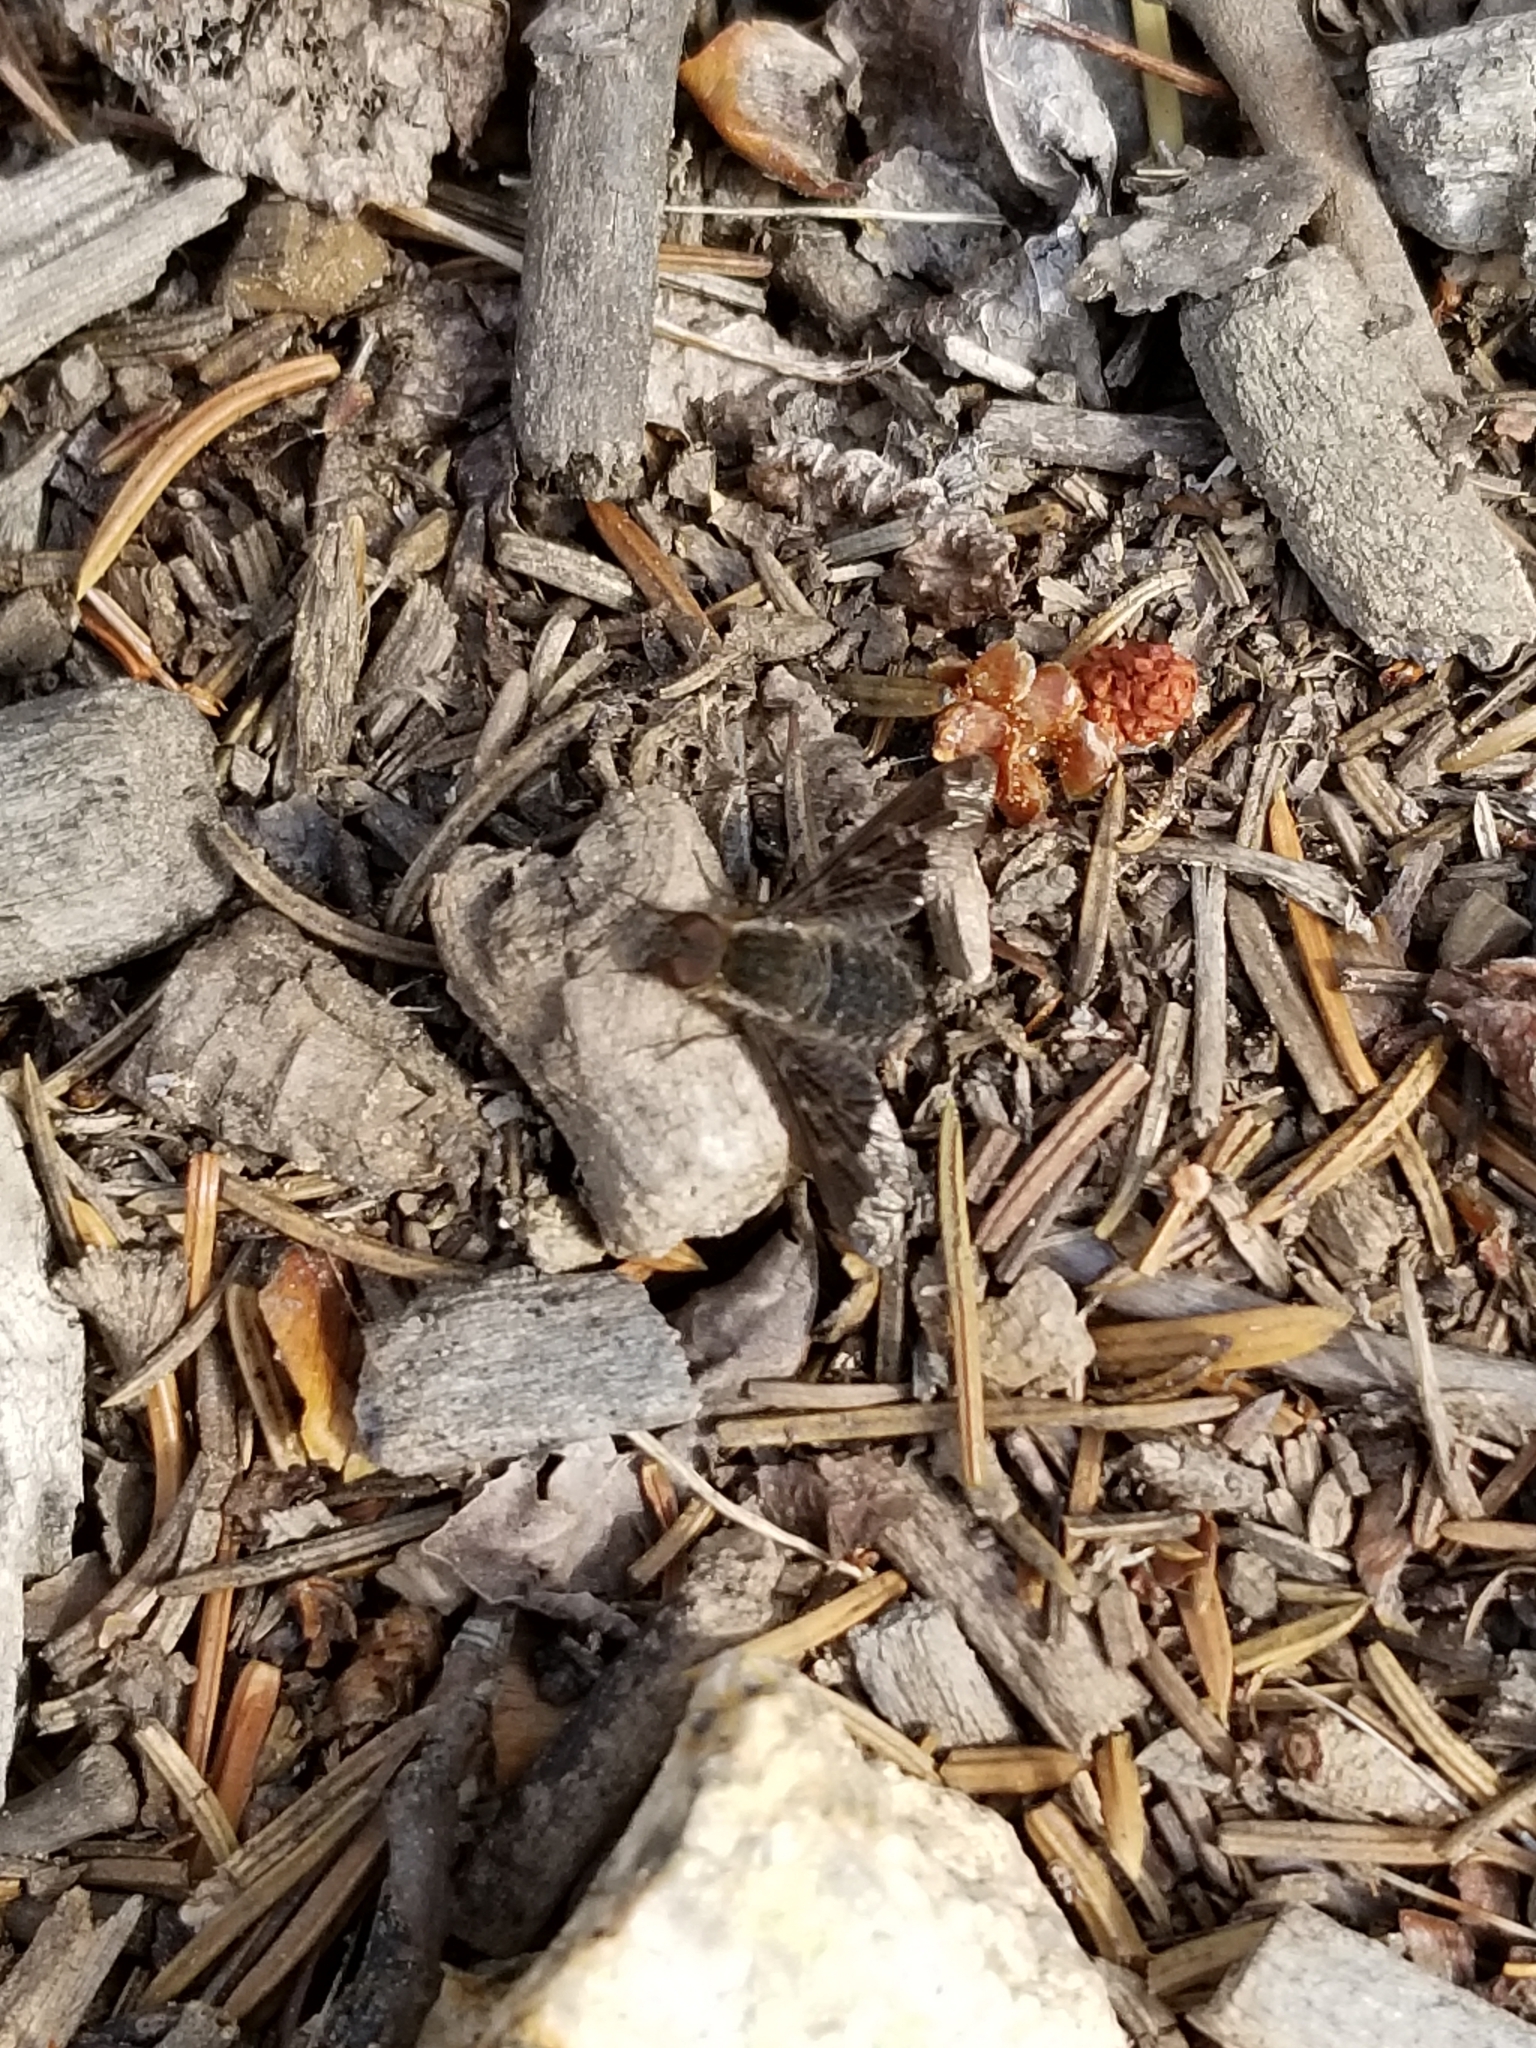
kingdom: Animalia
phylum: Arthropoda
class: Insecta
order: Diptera
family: Bombyliidae
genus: Hemipenthes
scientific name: Hemipenthes sinuosus
